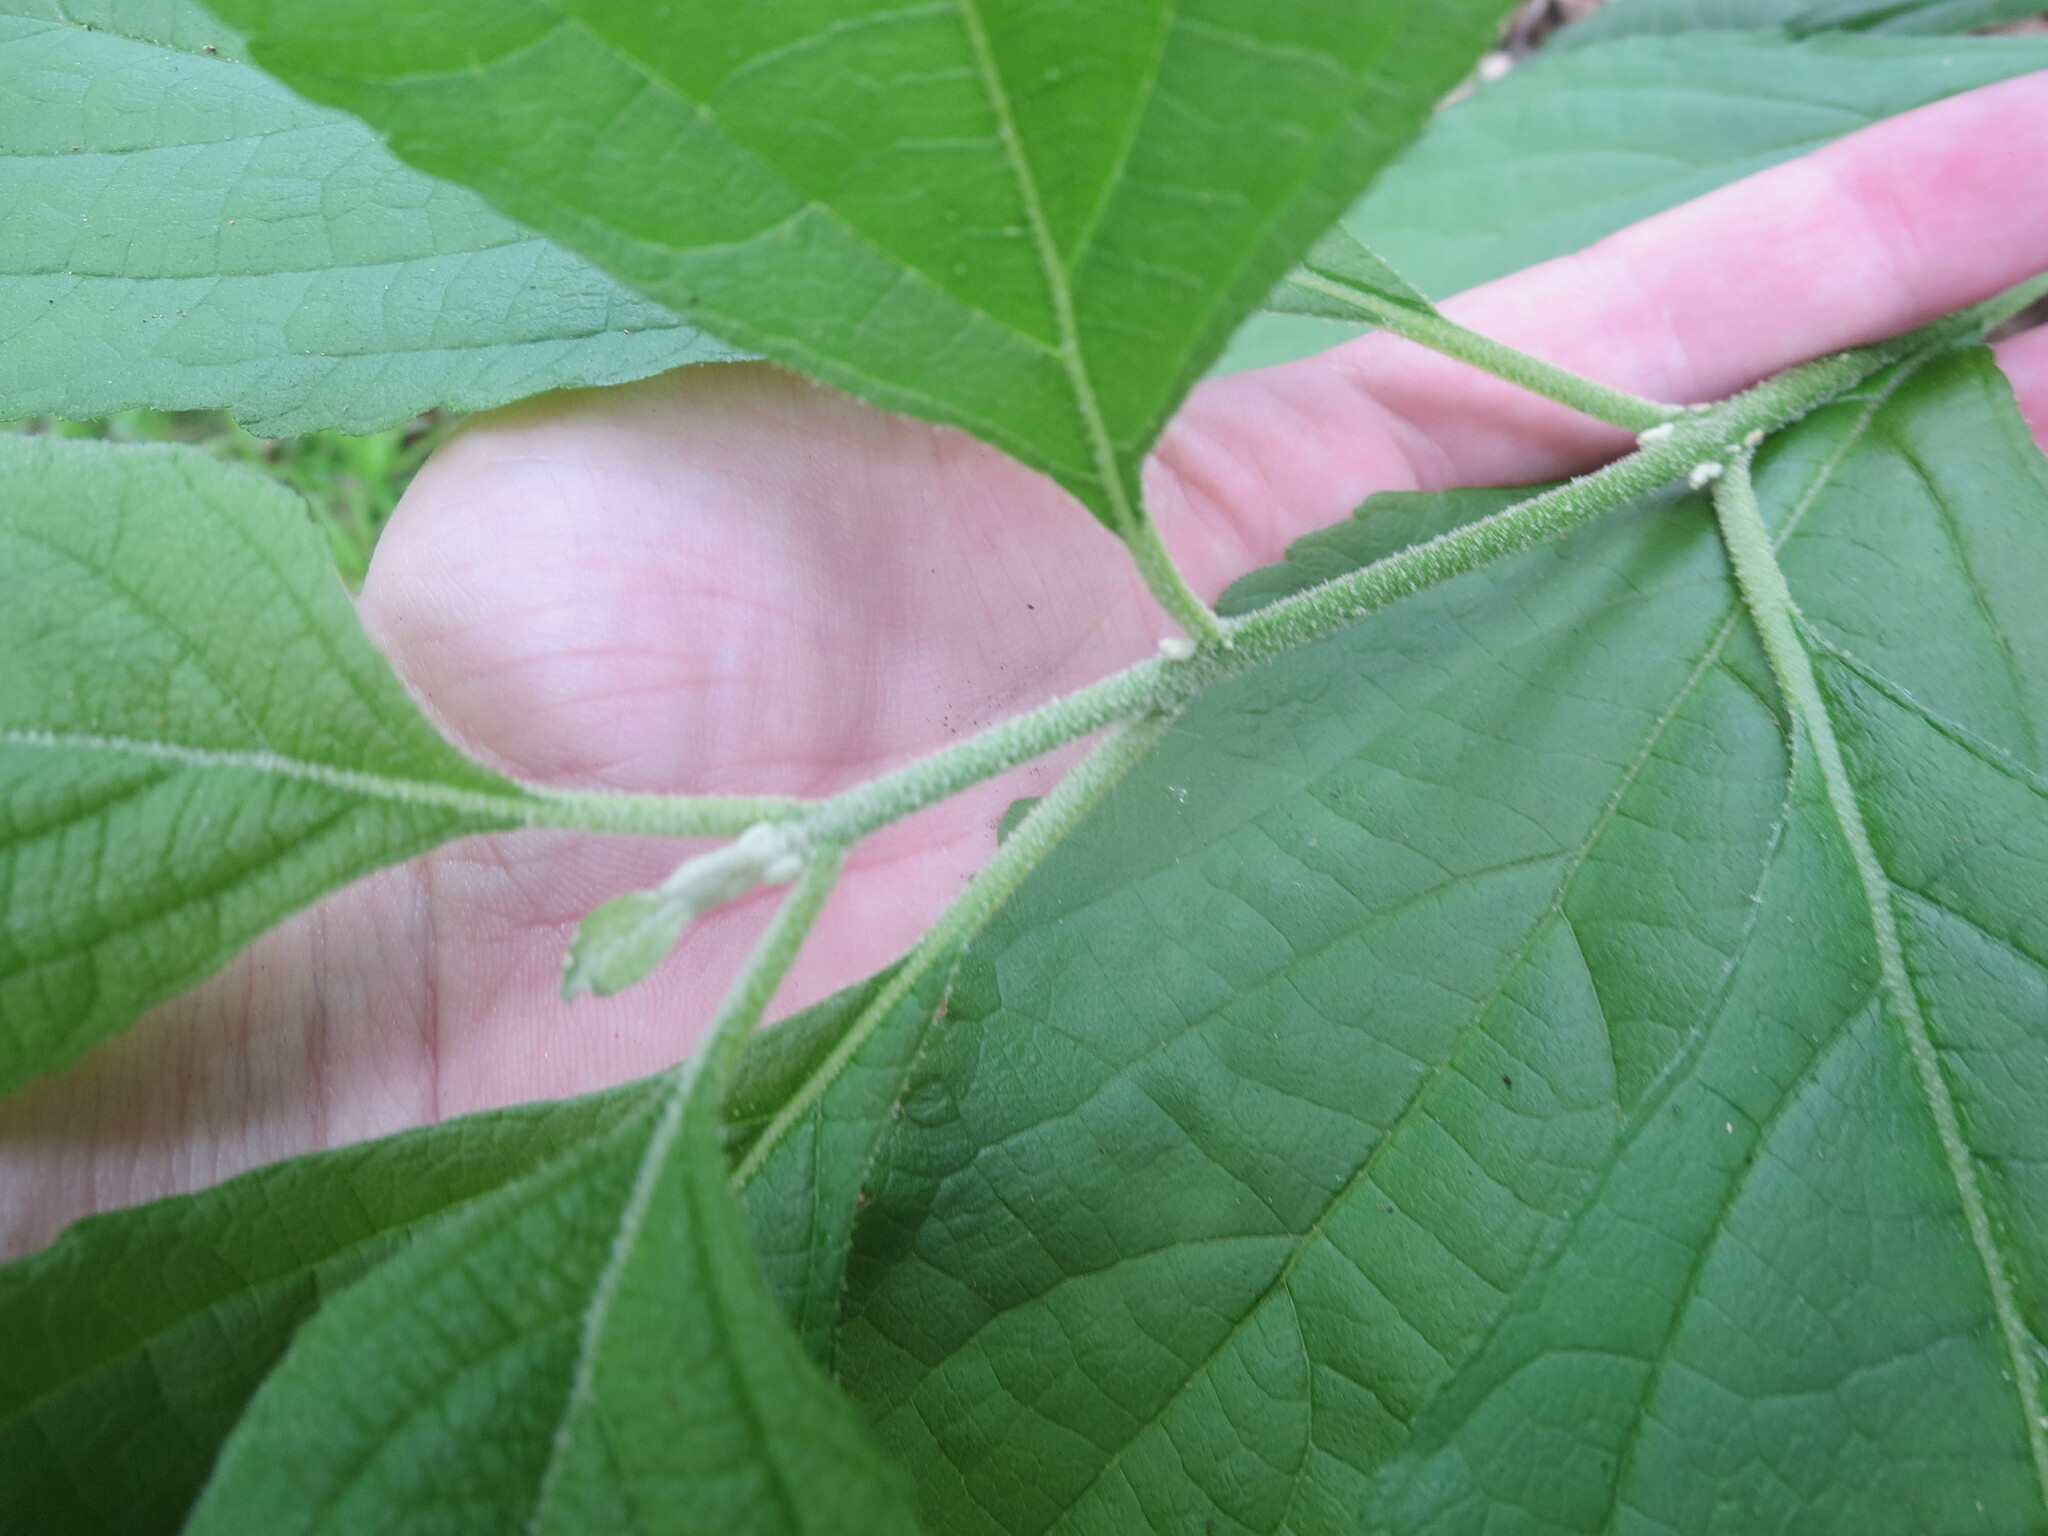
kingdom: Plantae
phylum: Tracheophyta
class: Magnoliopsida
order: Lamiales
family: Lamiaceae
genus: Callicarpa
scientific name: Callicarpa americana
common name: American beautyberry
